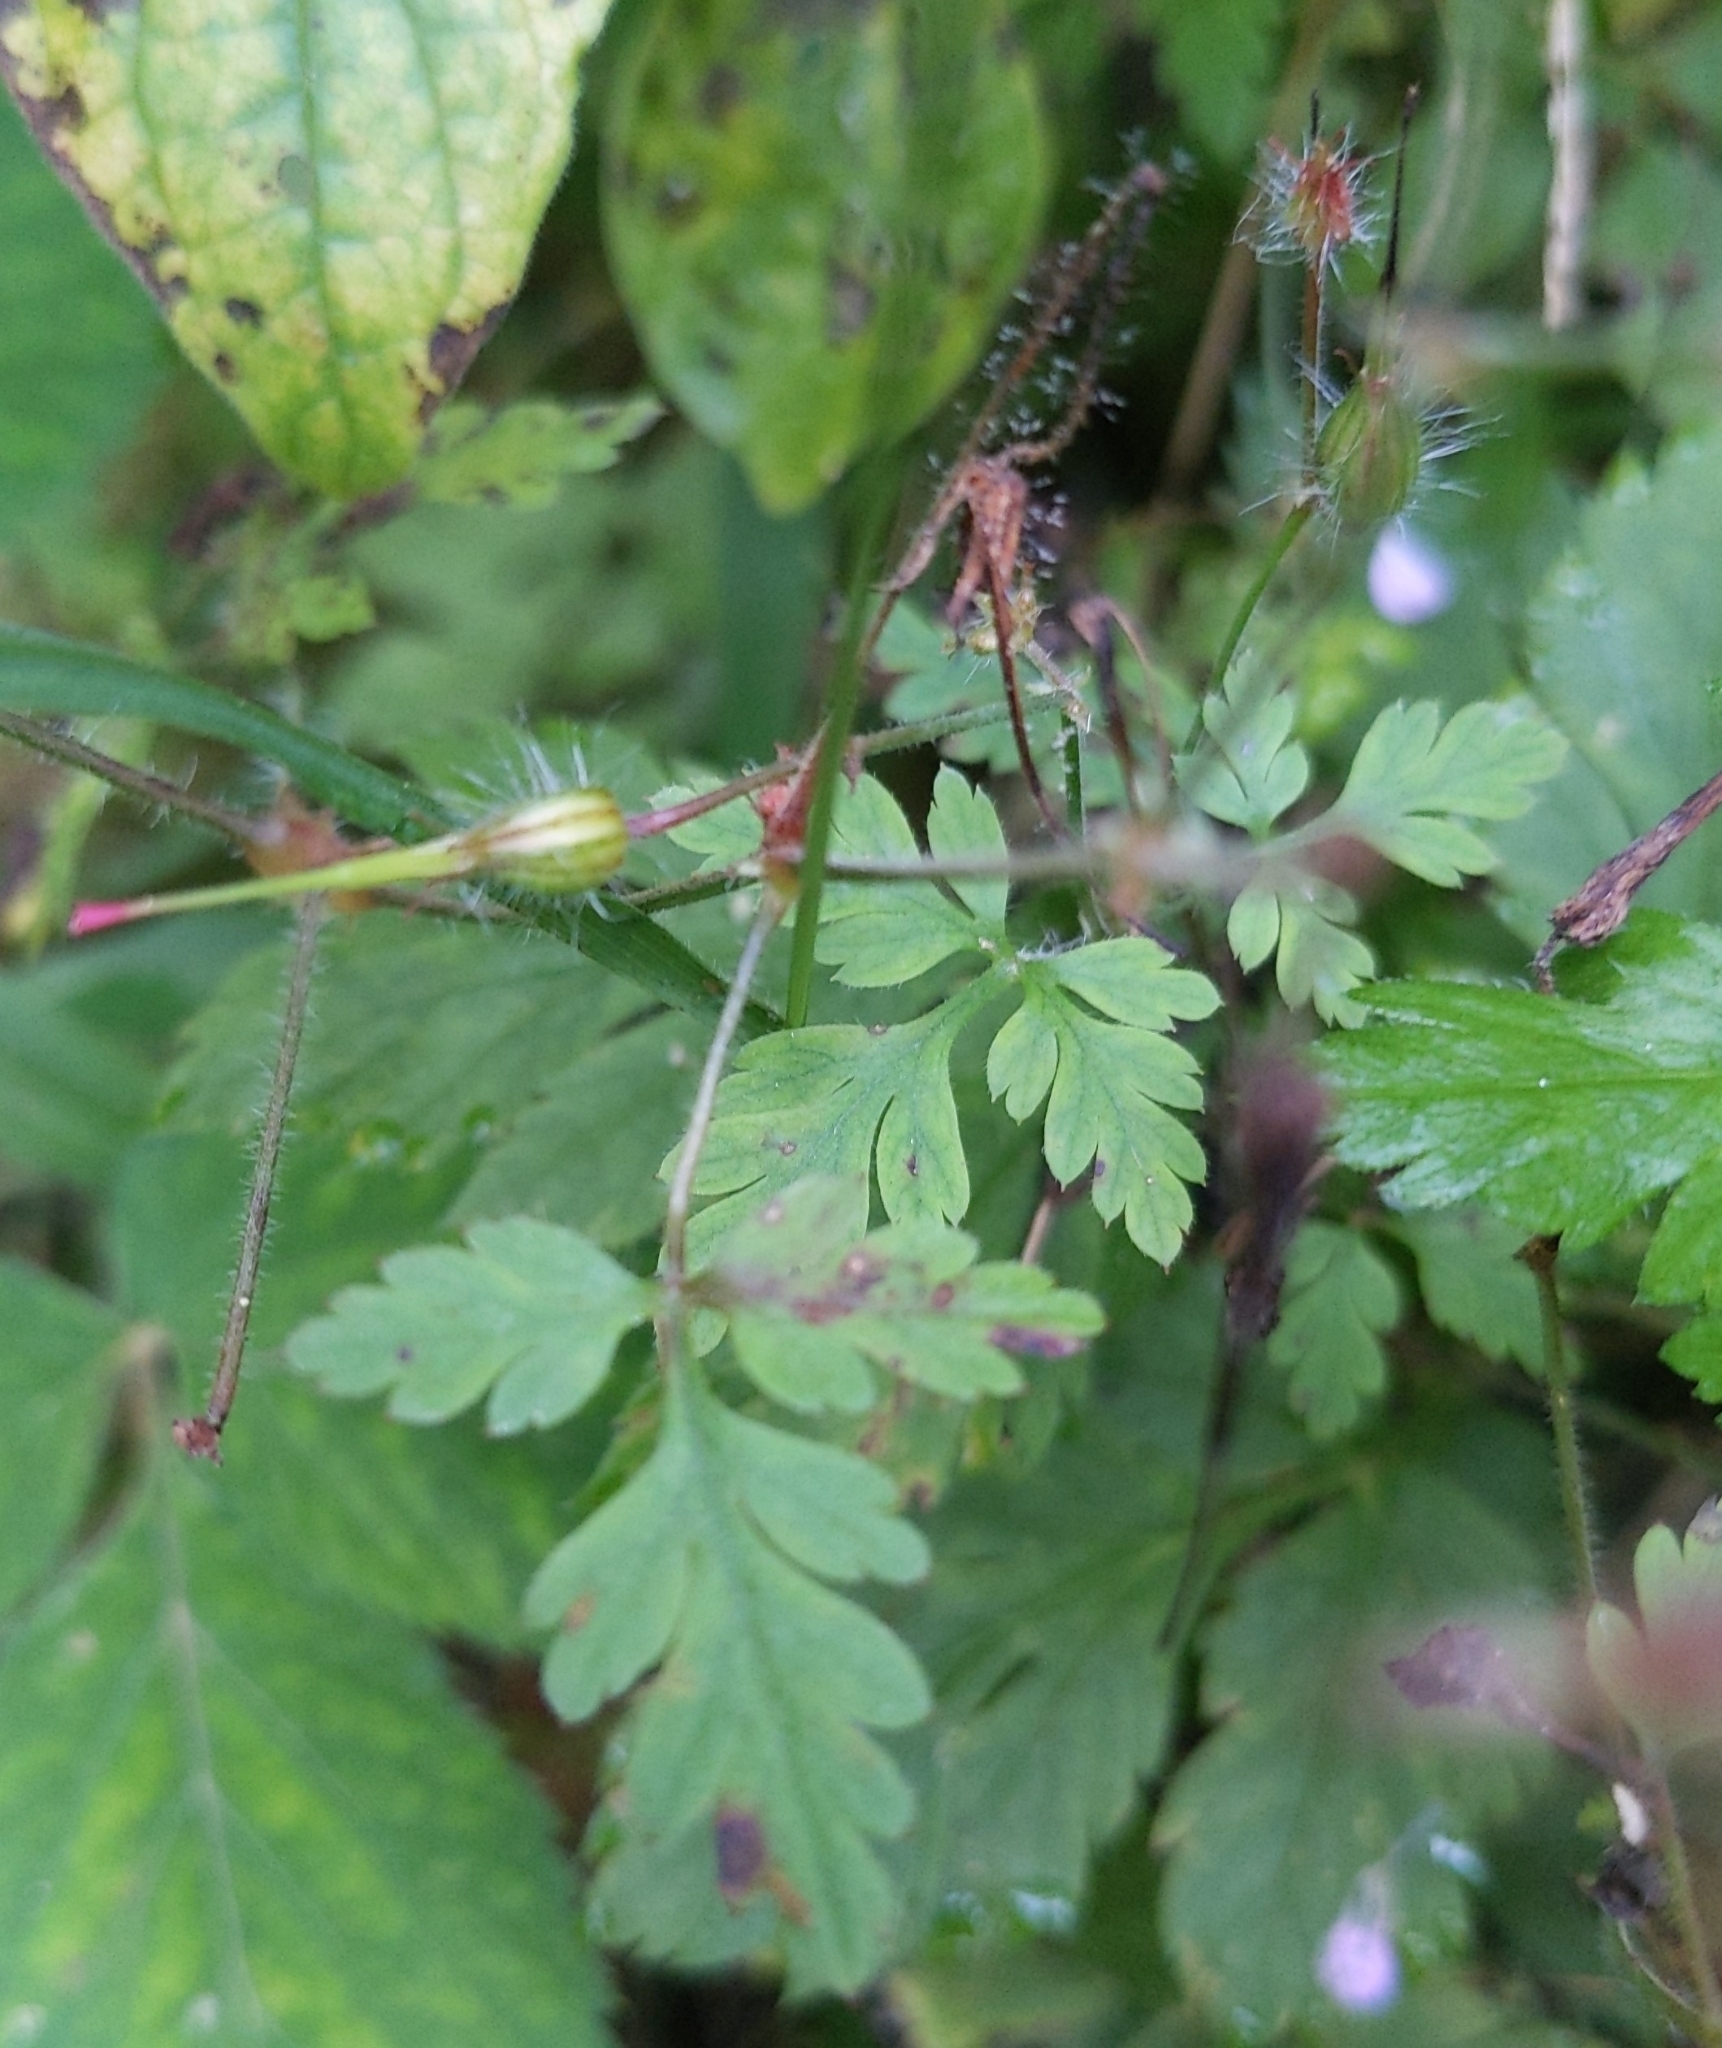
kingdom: Plantae
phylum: Tracheophyta
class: Magnoliopsida
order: Geraniales
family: Geraniaceae
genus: Geranium
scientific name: Geranium robertianum
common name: Herb-robert
